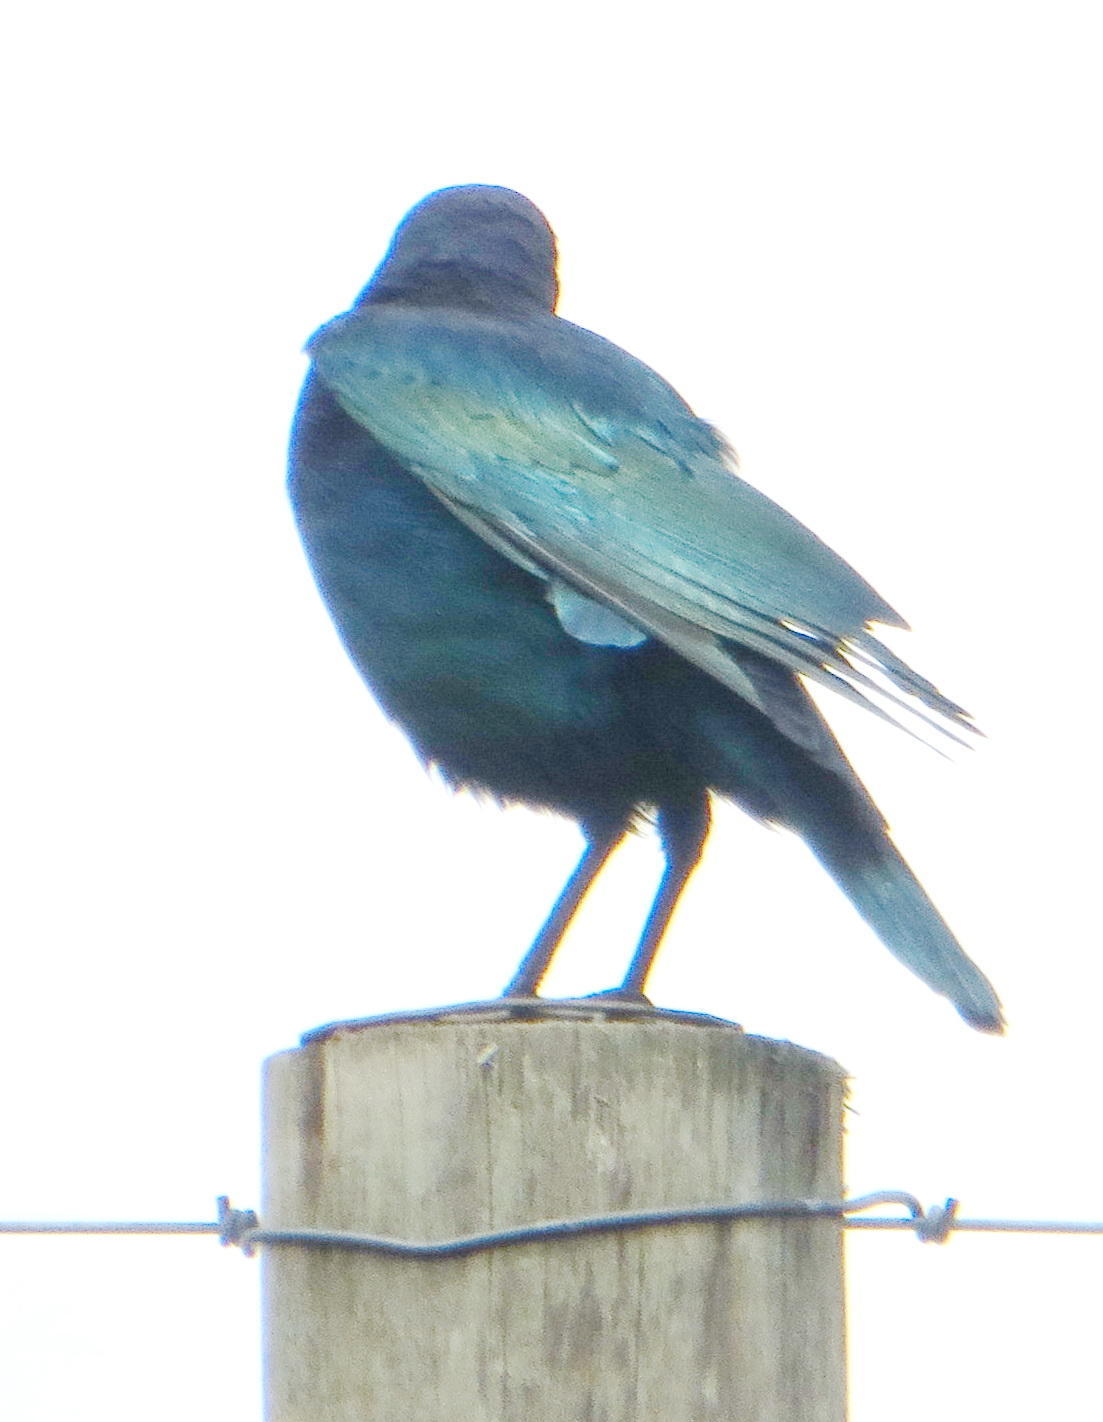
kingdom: Animalia
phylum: Chordata
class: Aves
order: Passeriformes
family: Sturnidae
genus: Lamprotornis
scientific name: Lamprotornis nitens
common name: Cape starling
